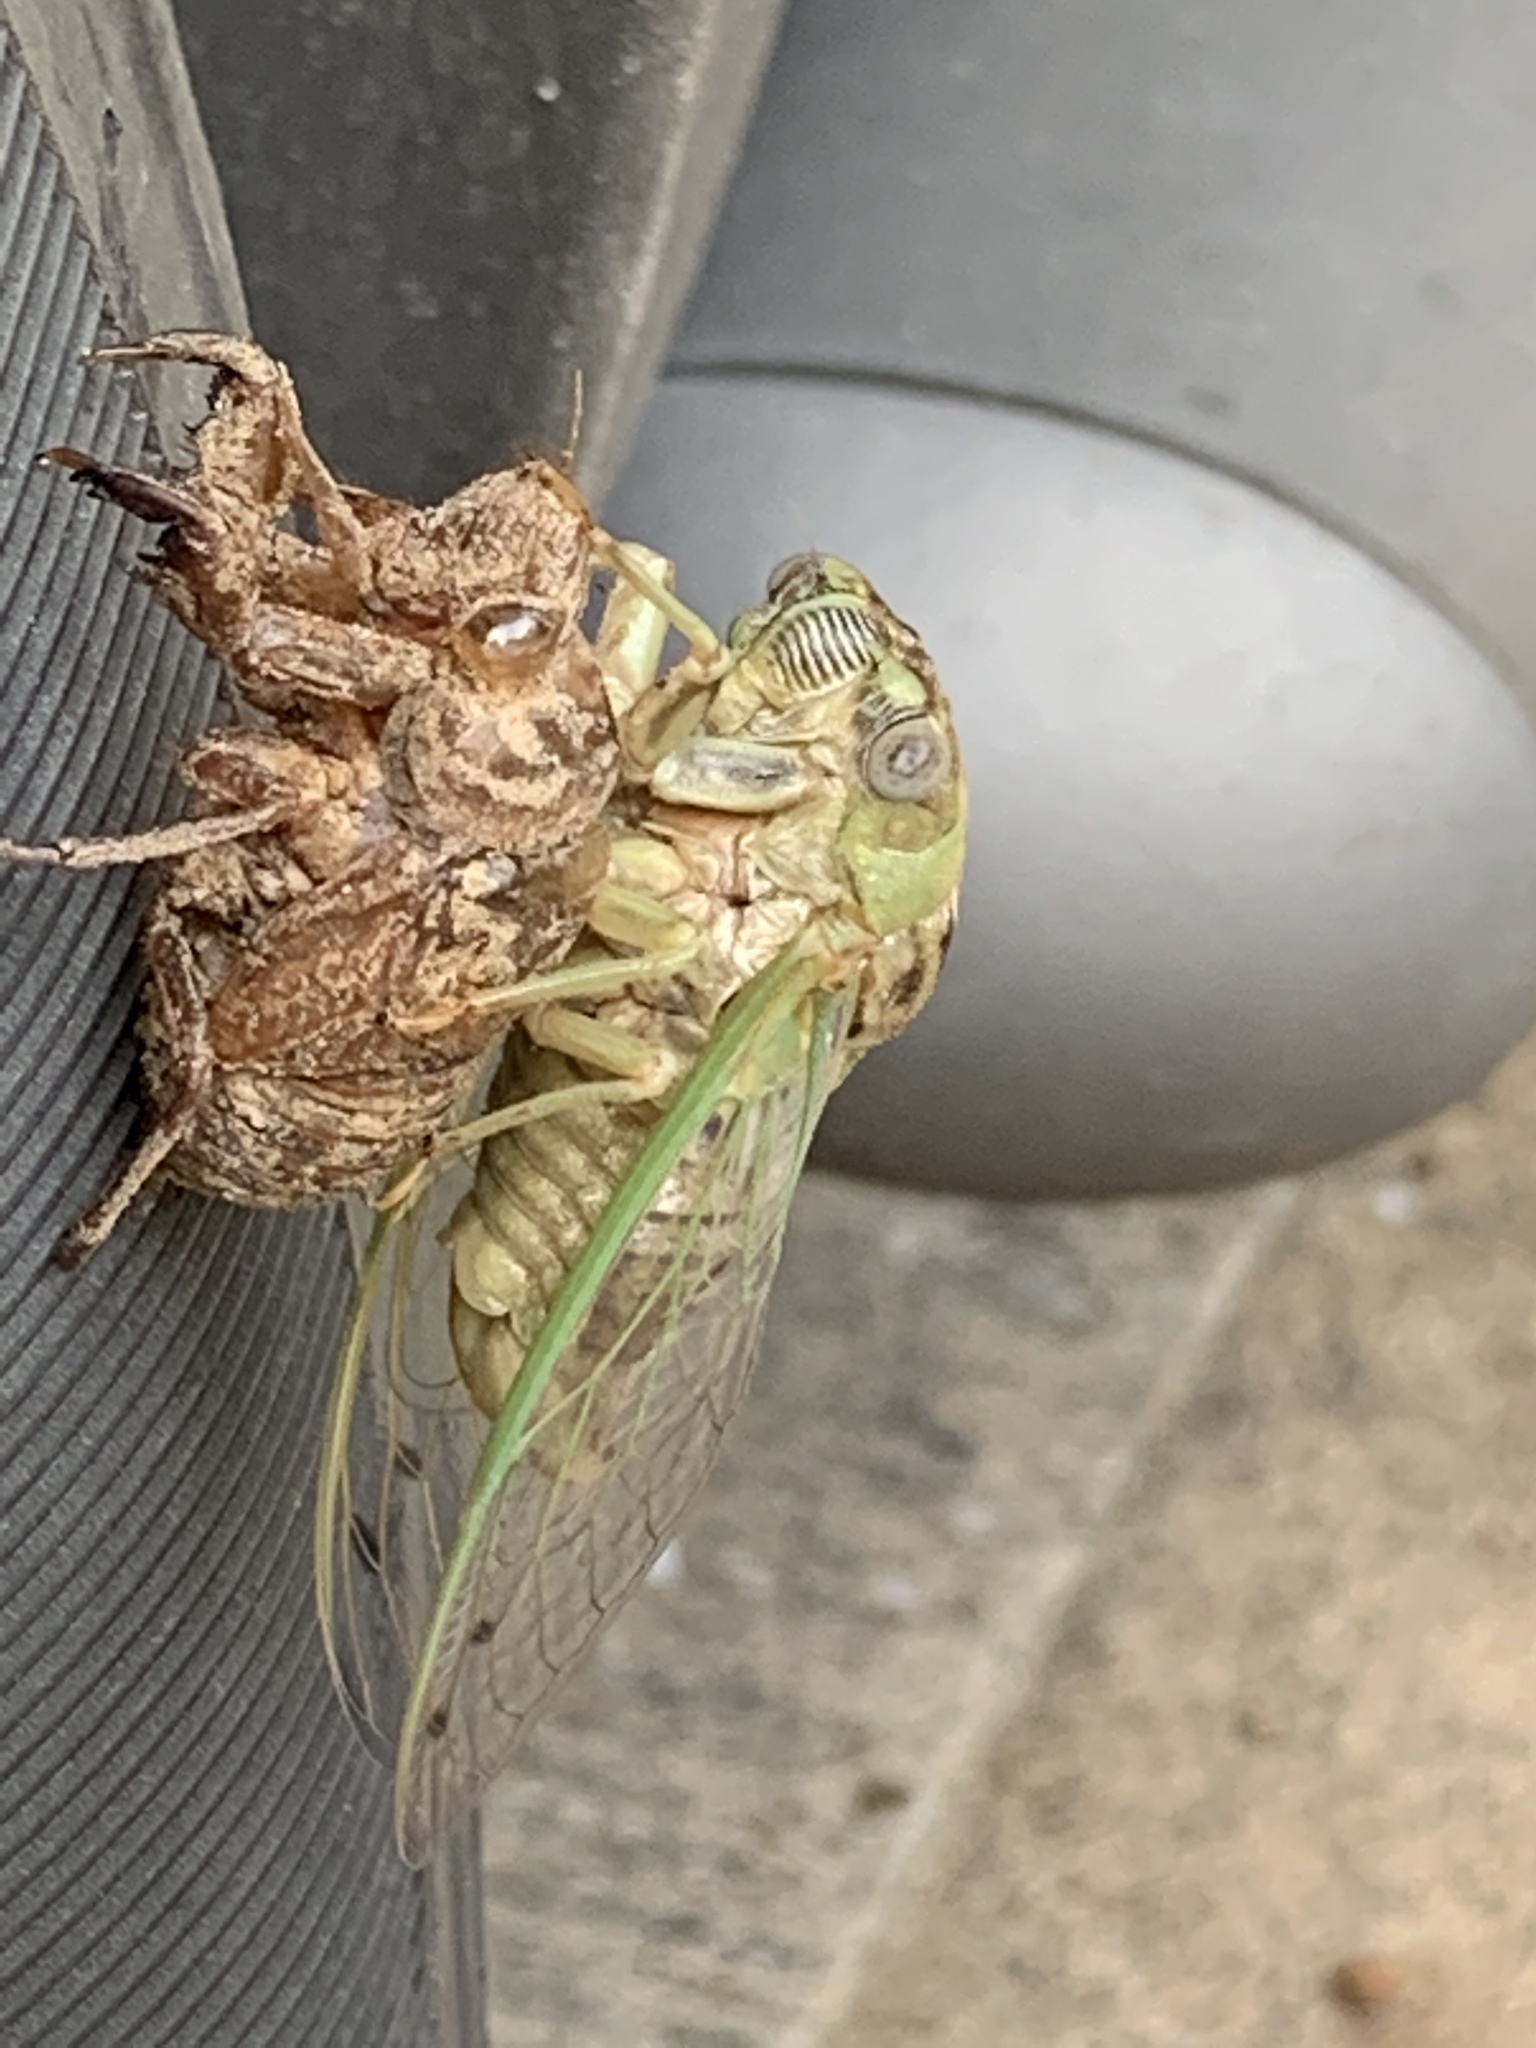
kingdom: Animalia
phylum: Arthropoda
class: Insecta
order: Hemiptera
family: Cicadidae
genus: Megatibicen
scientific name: Megatibicen resh
